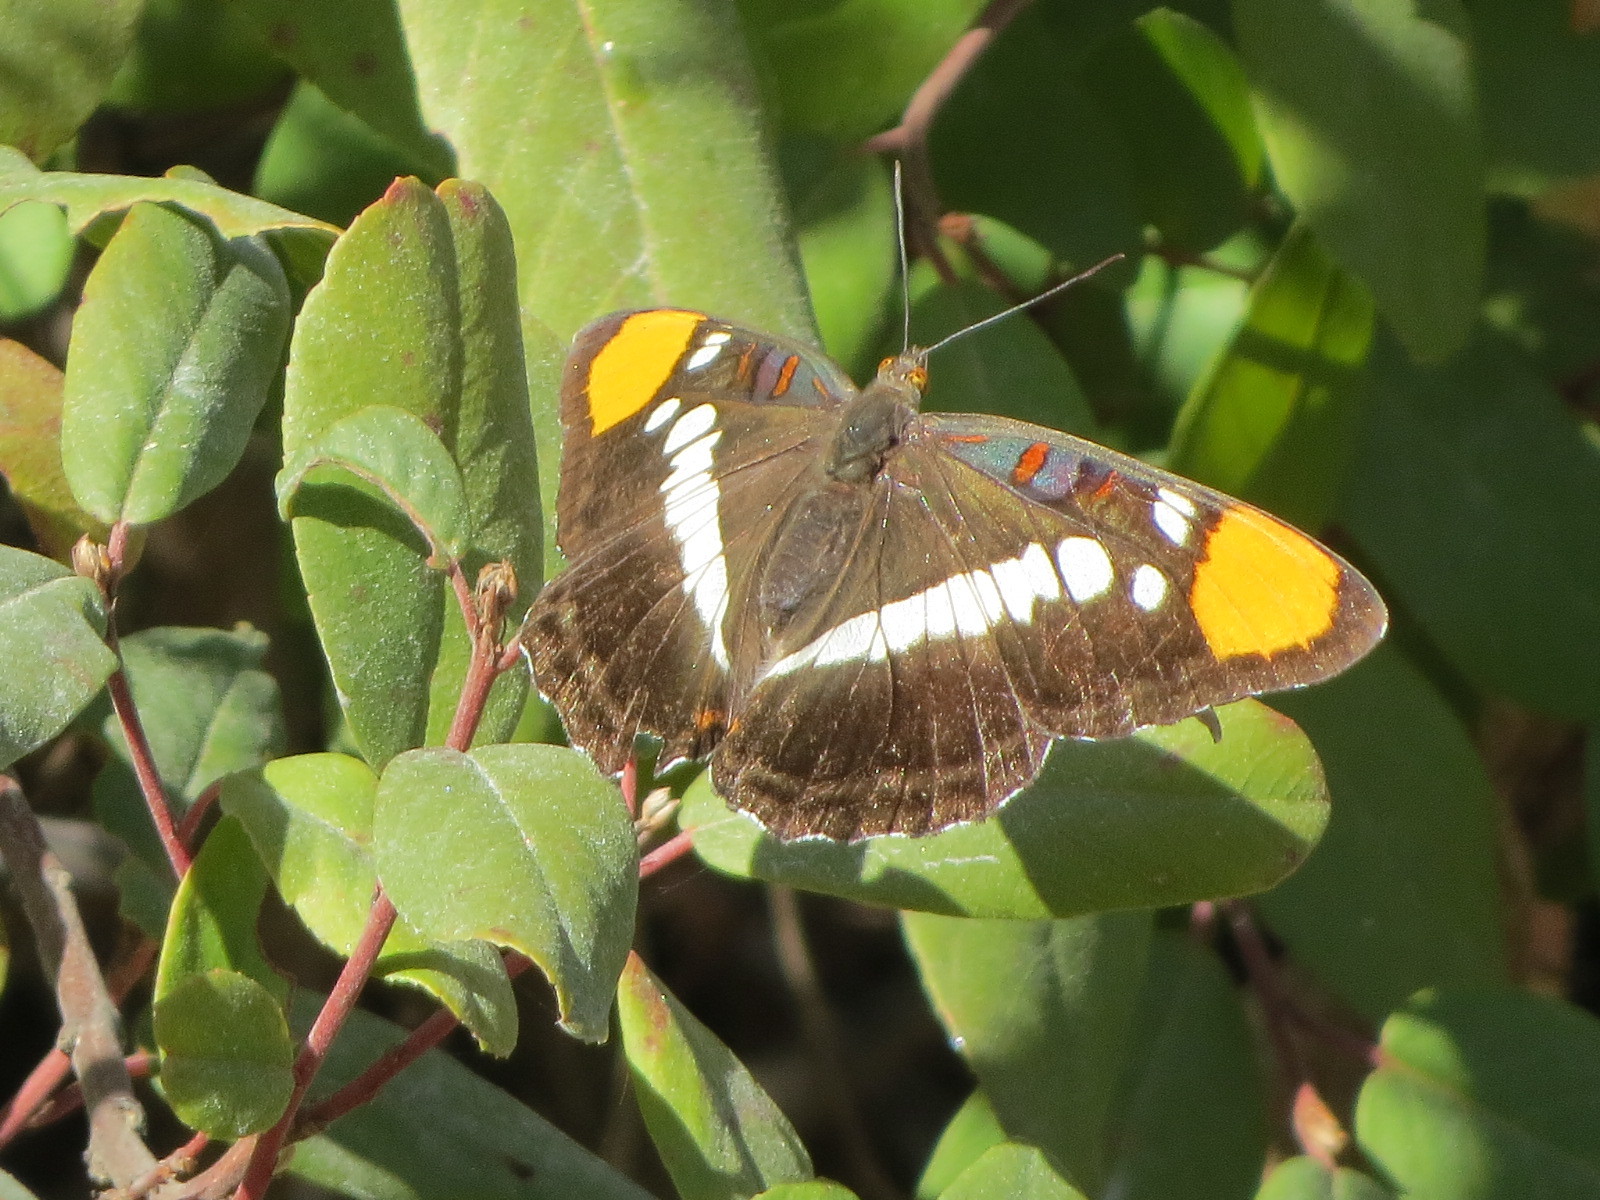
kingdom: Animalia
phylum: Arthropoda
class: Insecta
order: Lepidoptera
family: Nymphalidae
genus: Limenitis
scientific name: Limenitis bredowii
